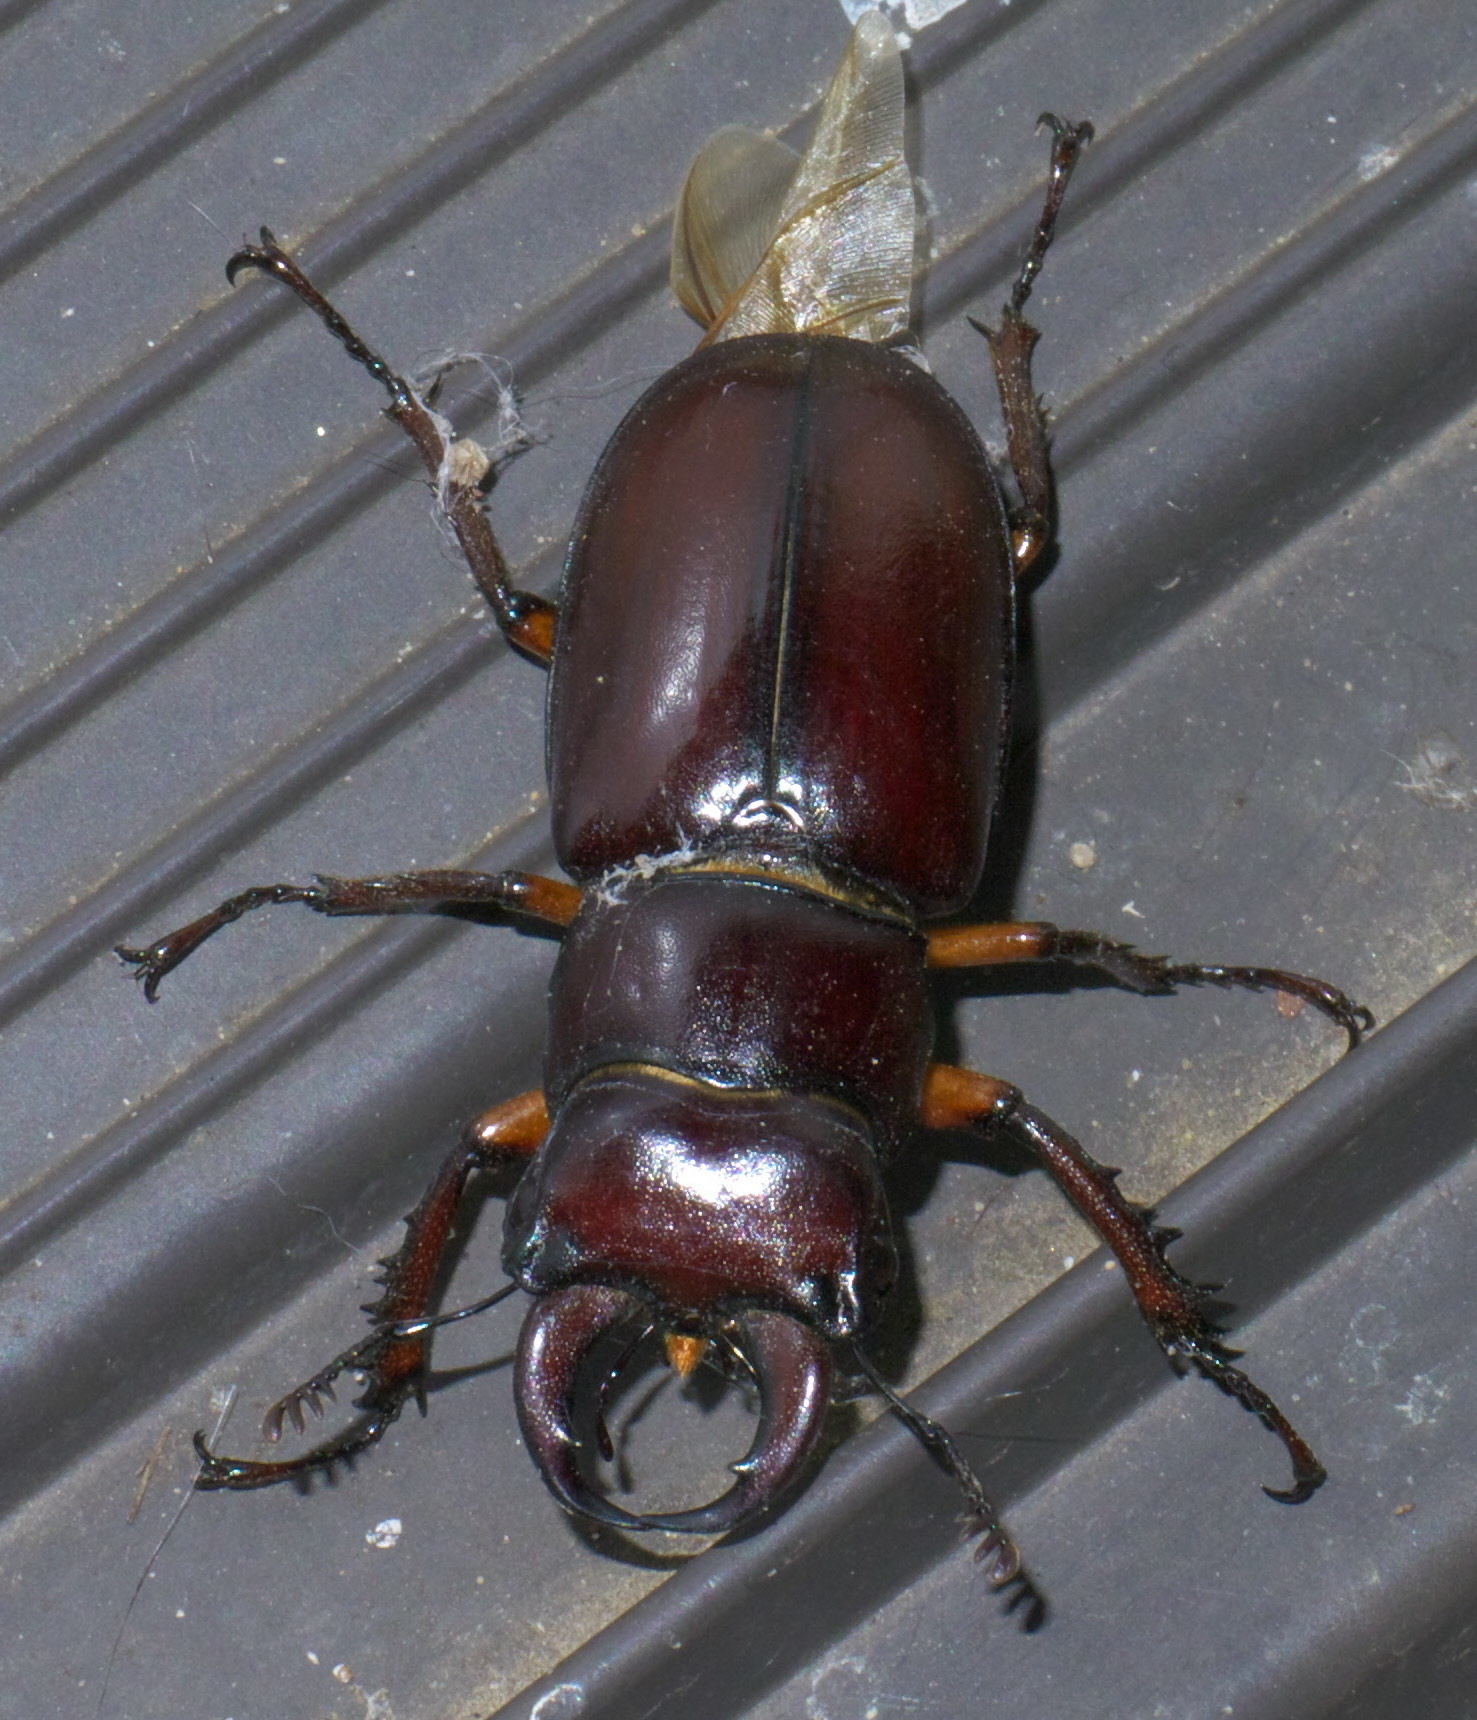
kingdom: Animalia
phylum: Arthropoda
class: Insecta
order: Coleoptera
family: Lucanidae
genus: Lucanus
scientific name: Lucanus capreolus
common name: Stag beetle
